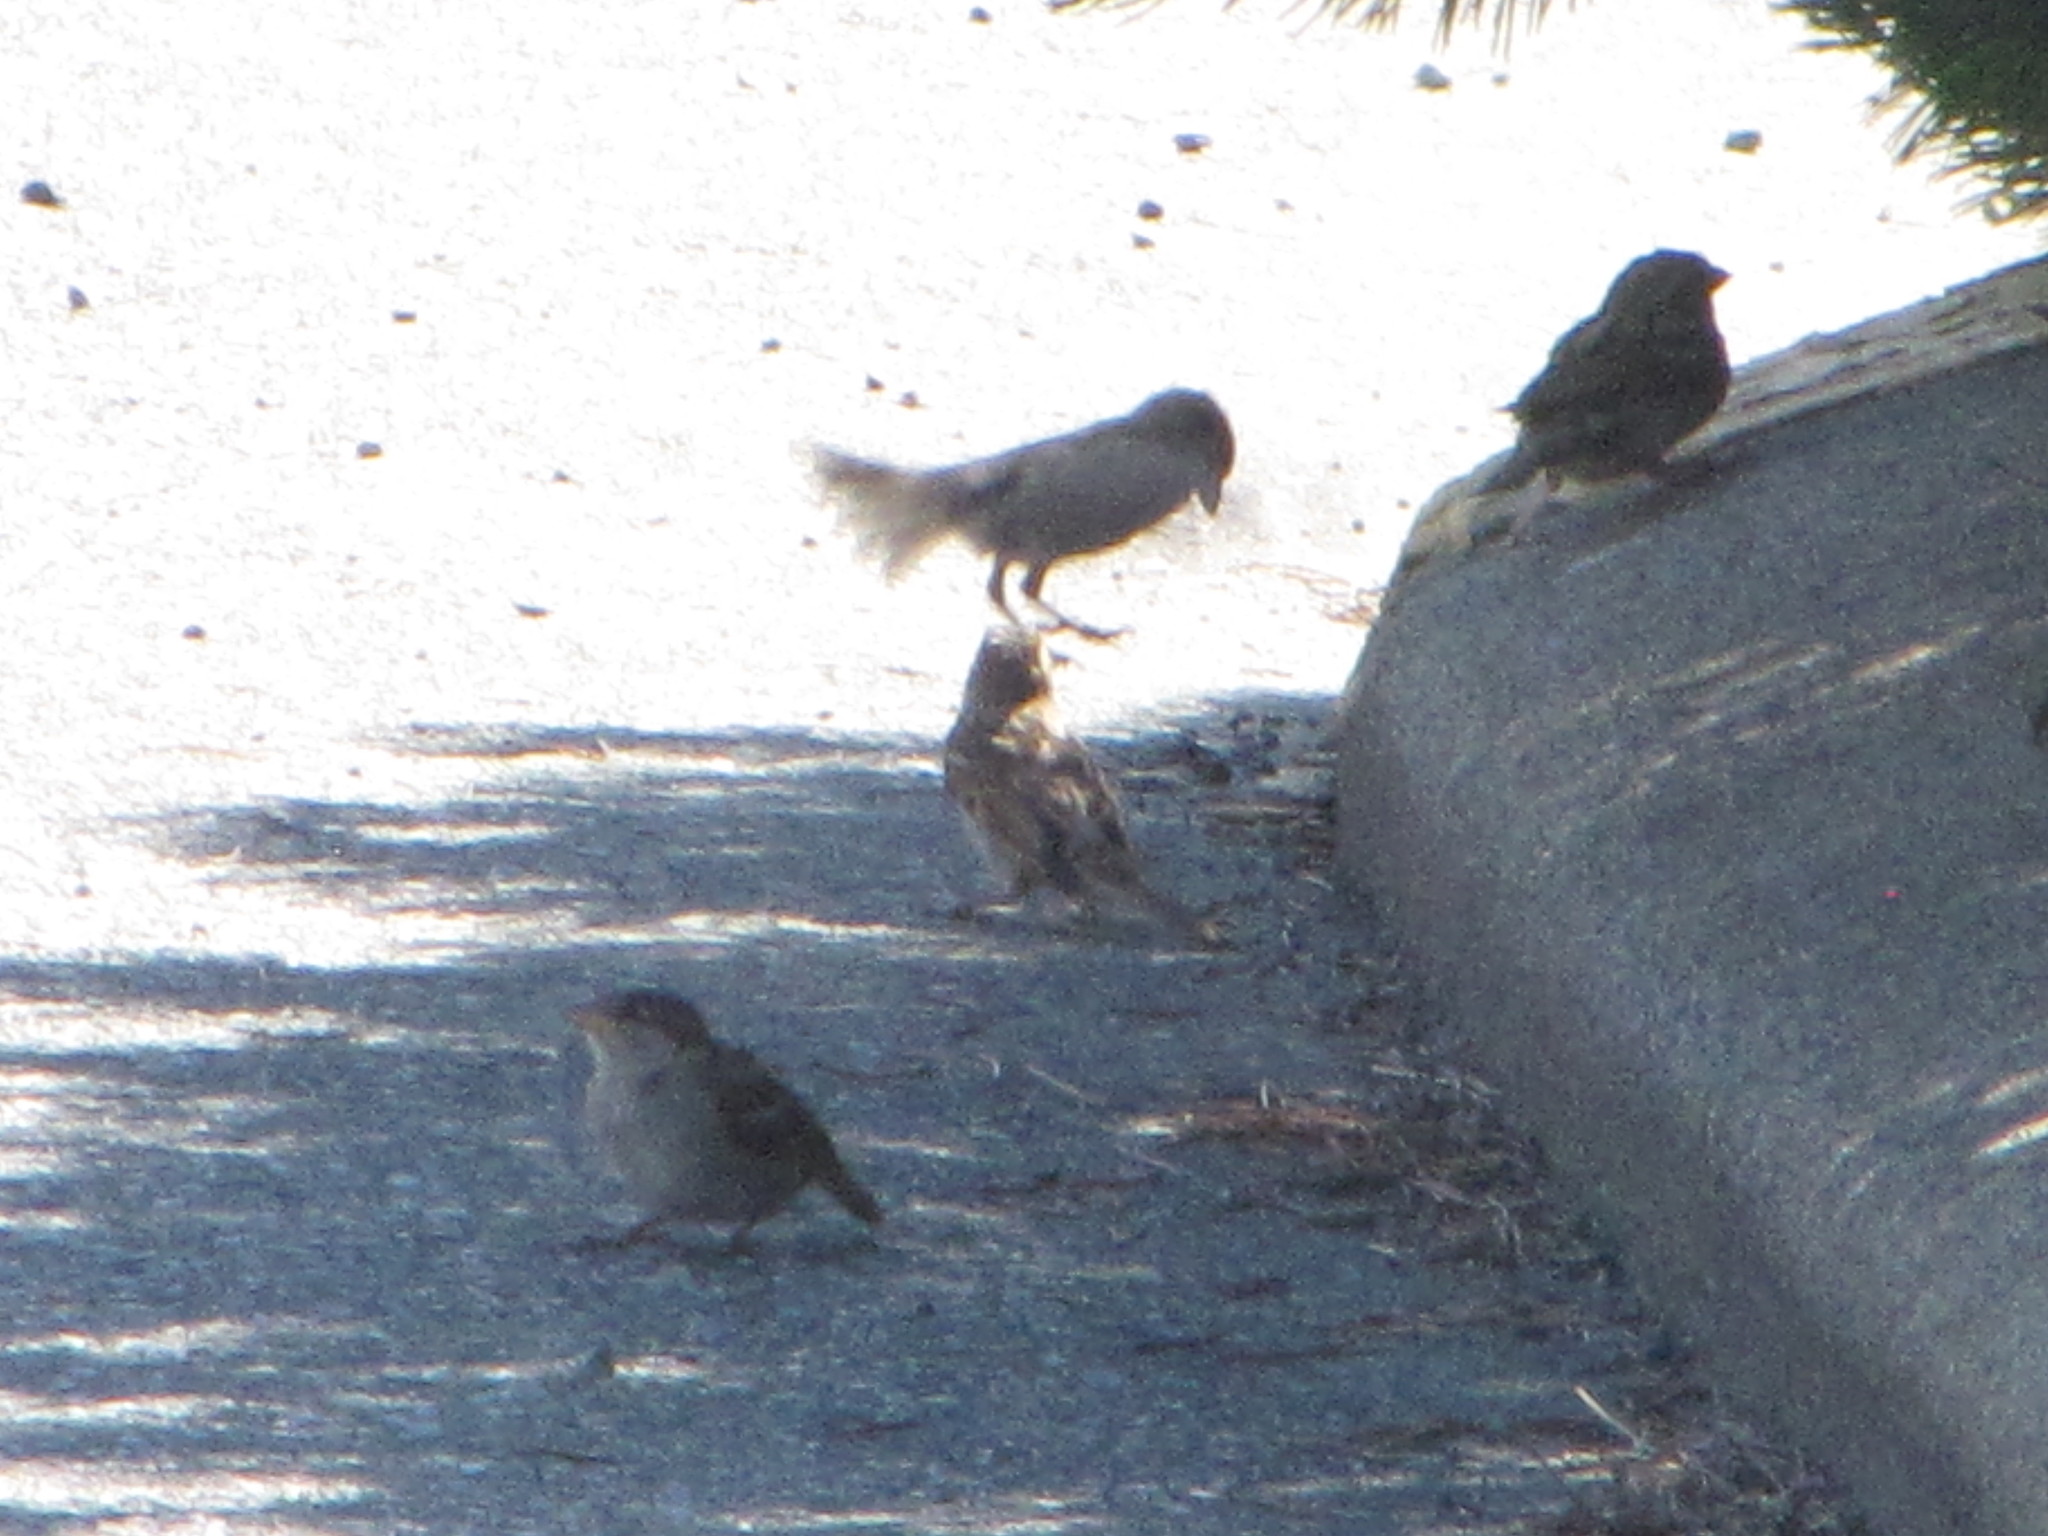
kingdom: Animalia
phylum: Chordata
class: Aves
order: Passeriformes
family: Passeridae
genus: Passer
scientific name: Passer domesticus
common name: House sparrow
